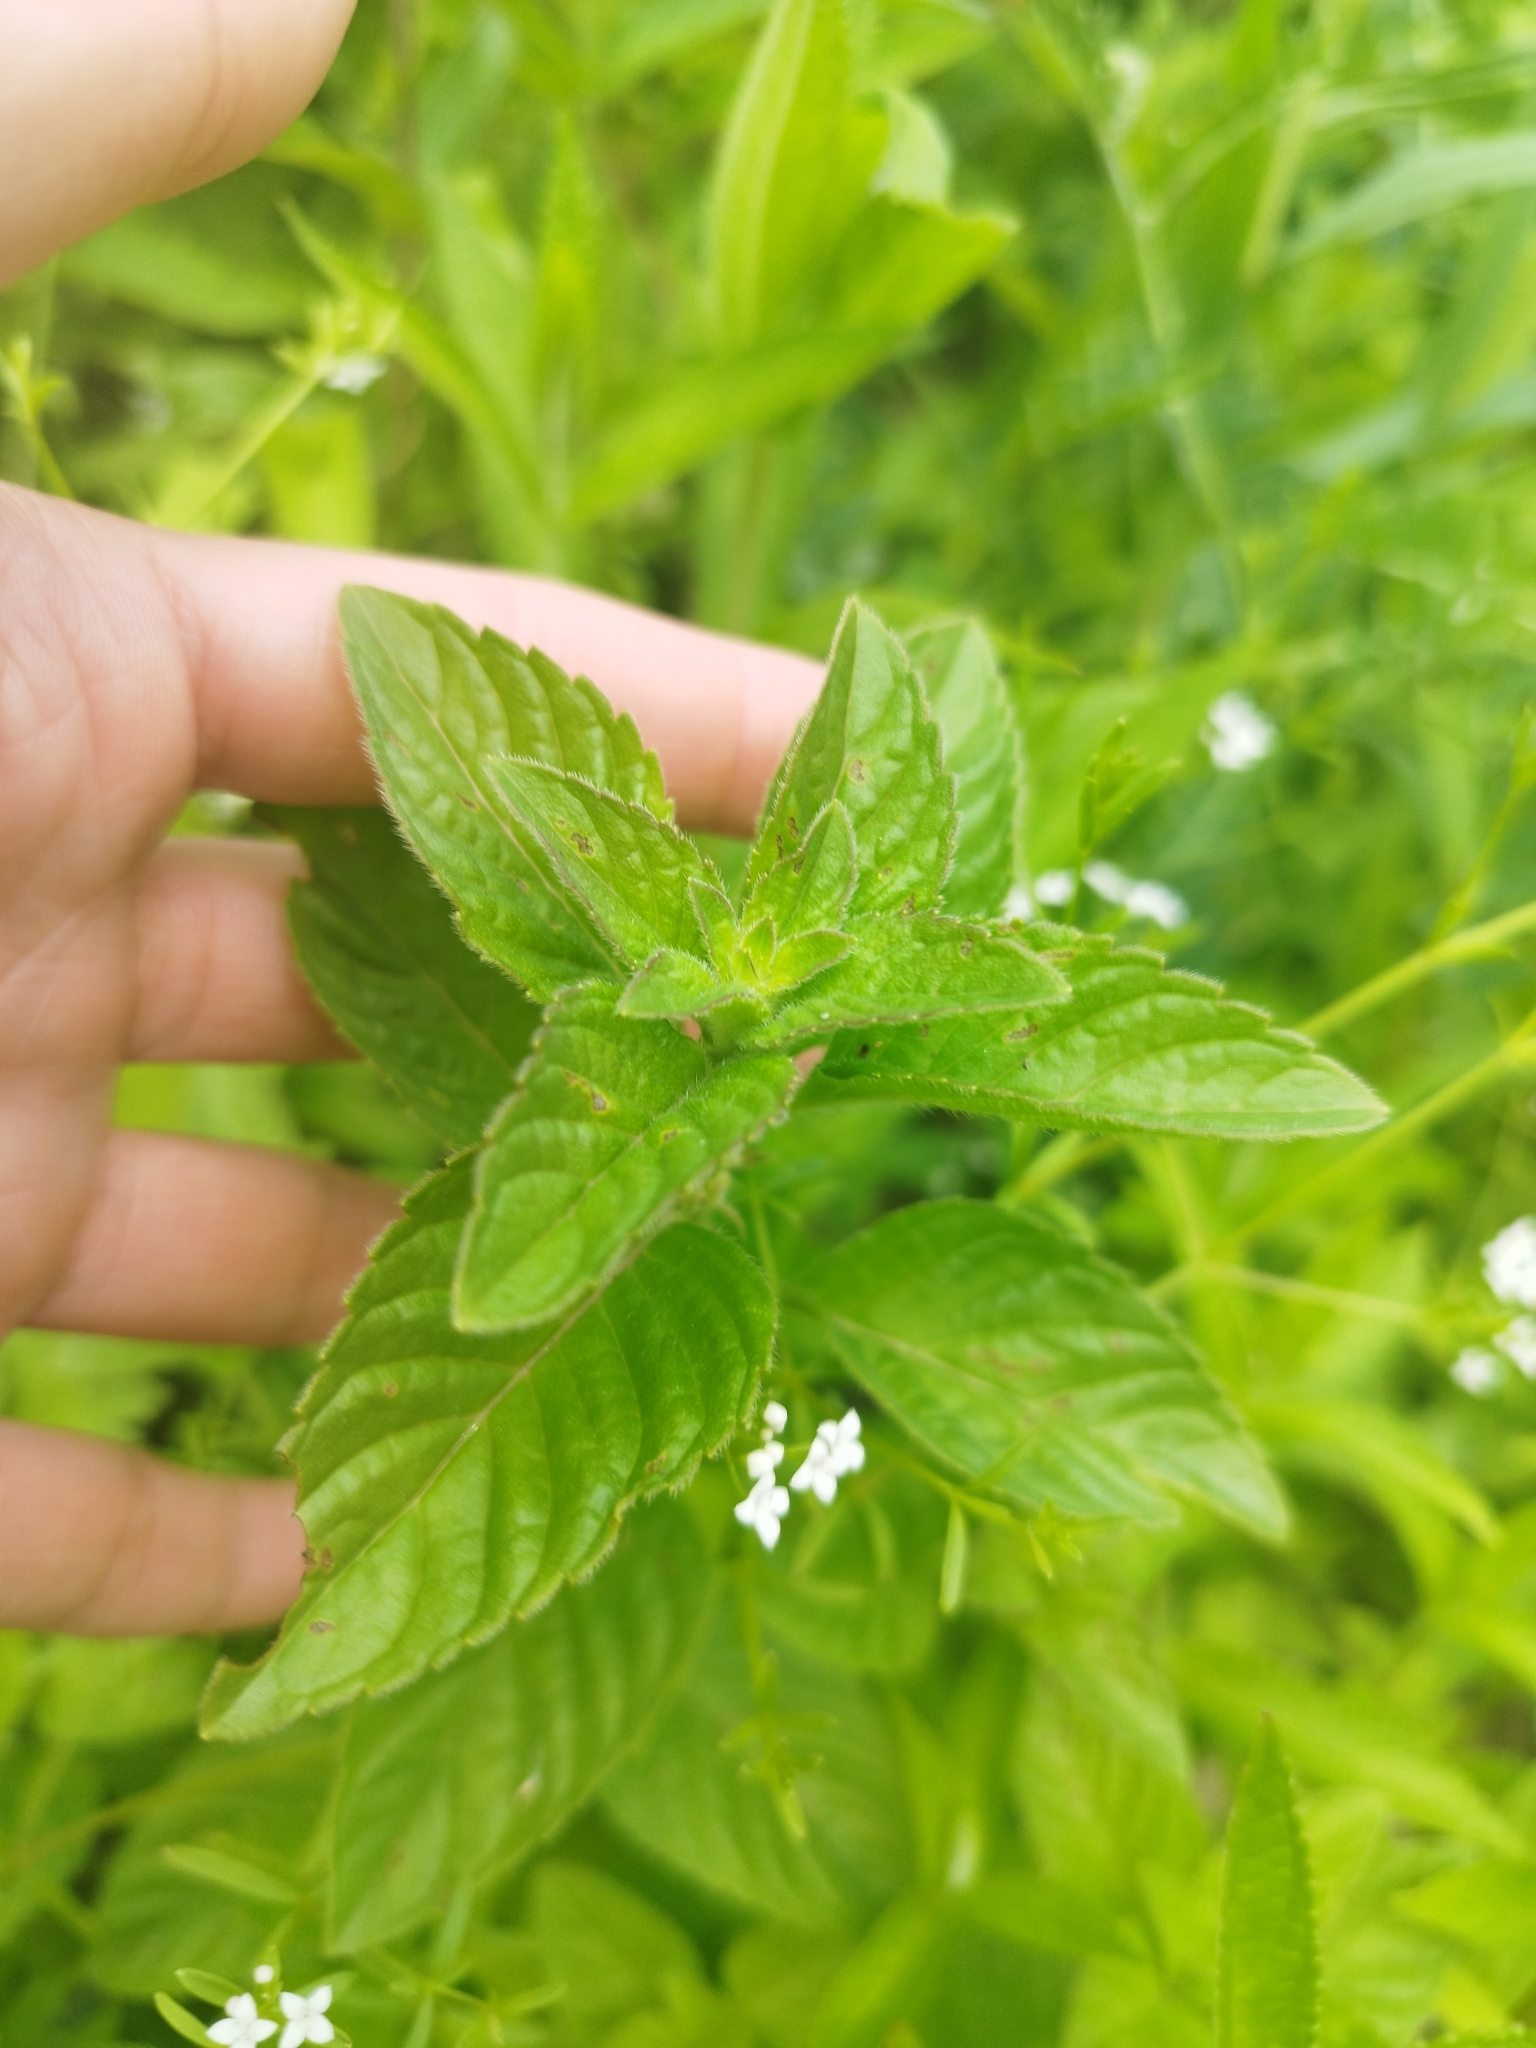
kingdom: Plantae
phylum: Tracheophyta
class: Magnoliopsida
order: Lamiales
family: Lamiaceae
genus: Mentha
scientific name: Mentha arvensis
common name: Corn mint
